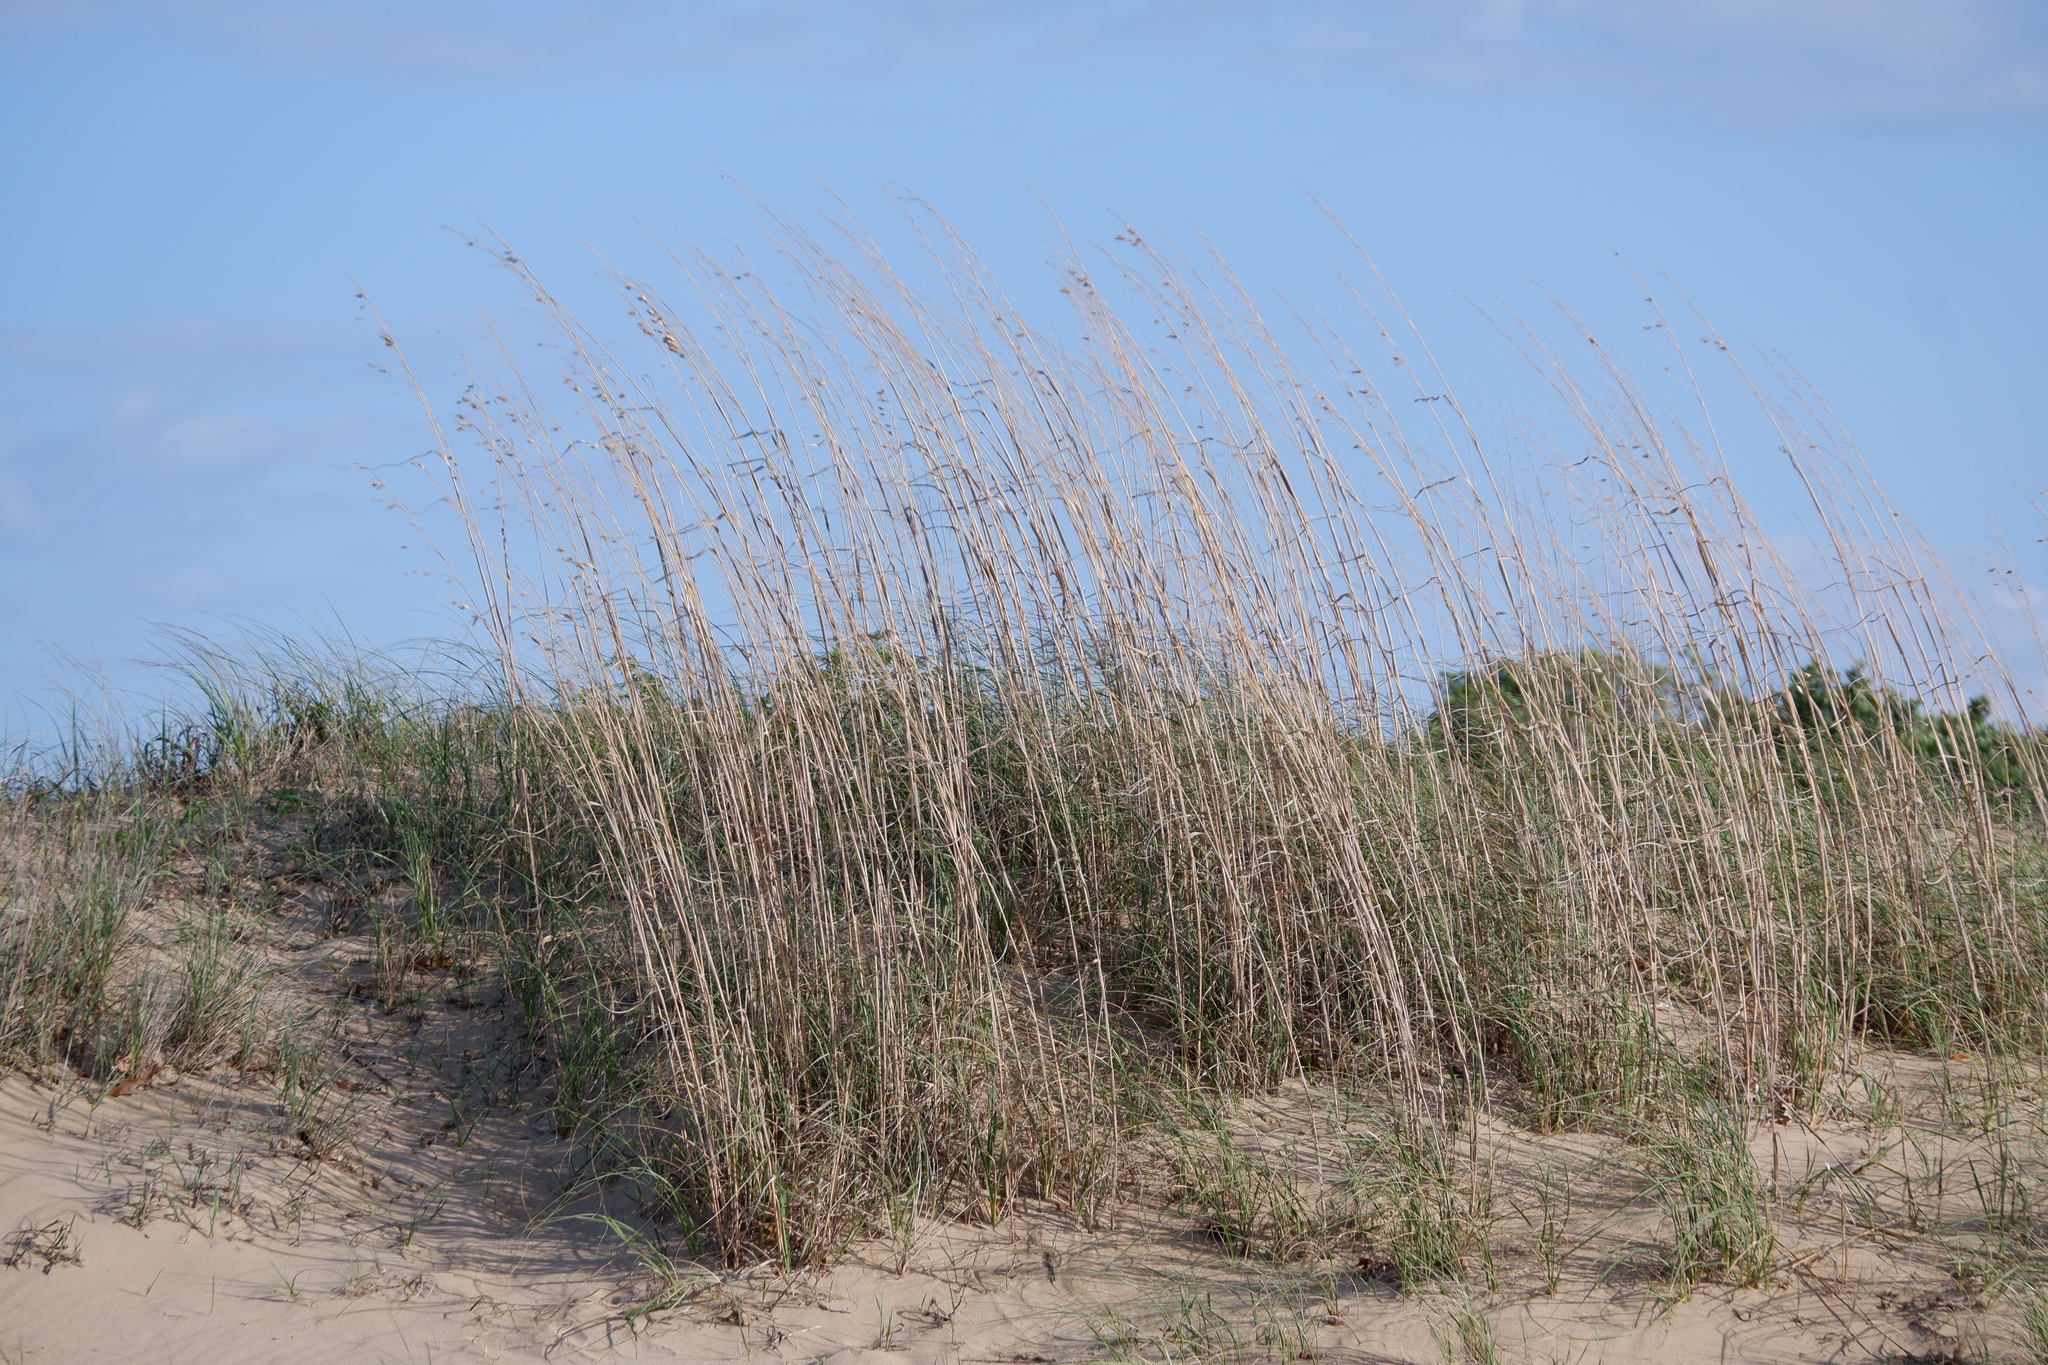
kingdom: Plantae
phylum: Tracheophyta
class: Liliopsida
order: Poales
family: Poaceae
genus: Uniola
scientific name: Uniola paniculata
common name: Seaside-oats
